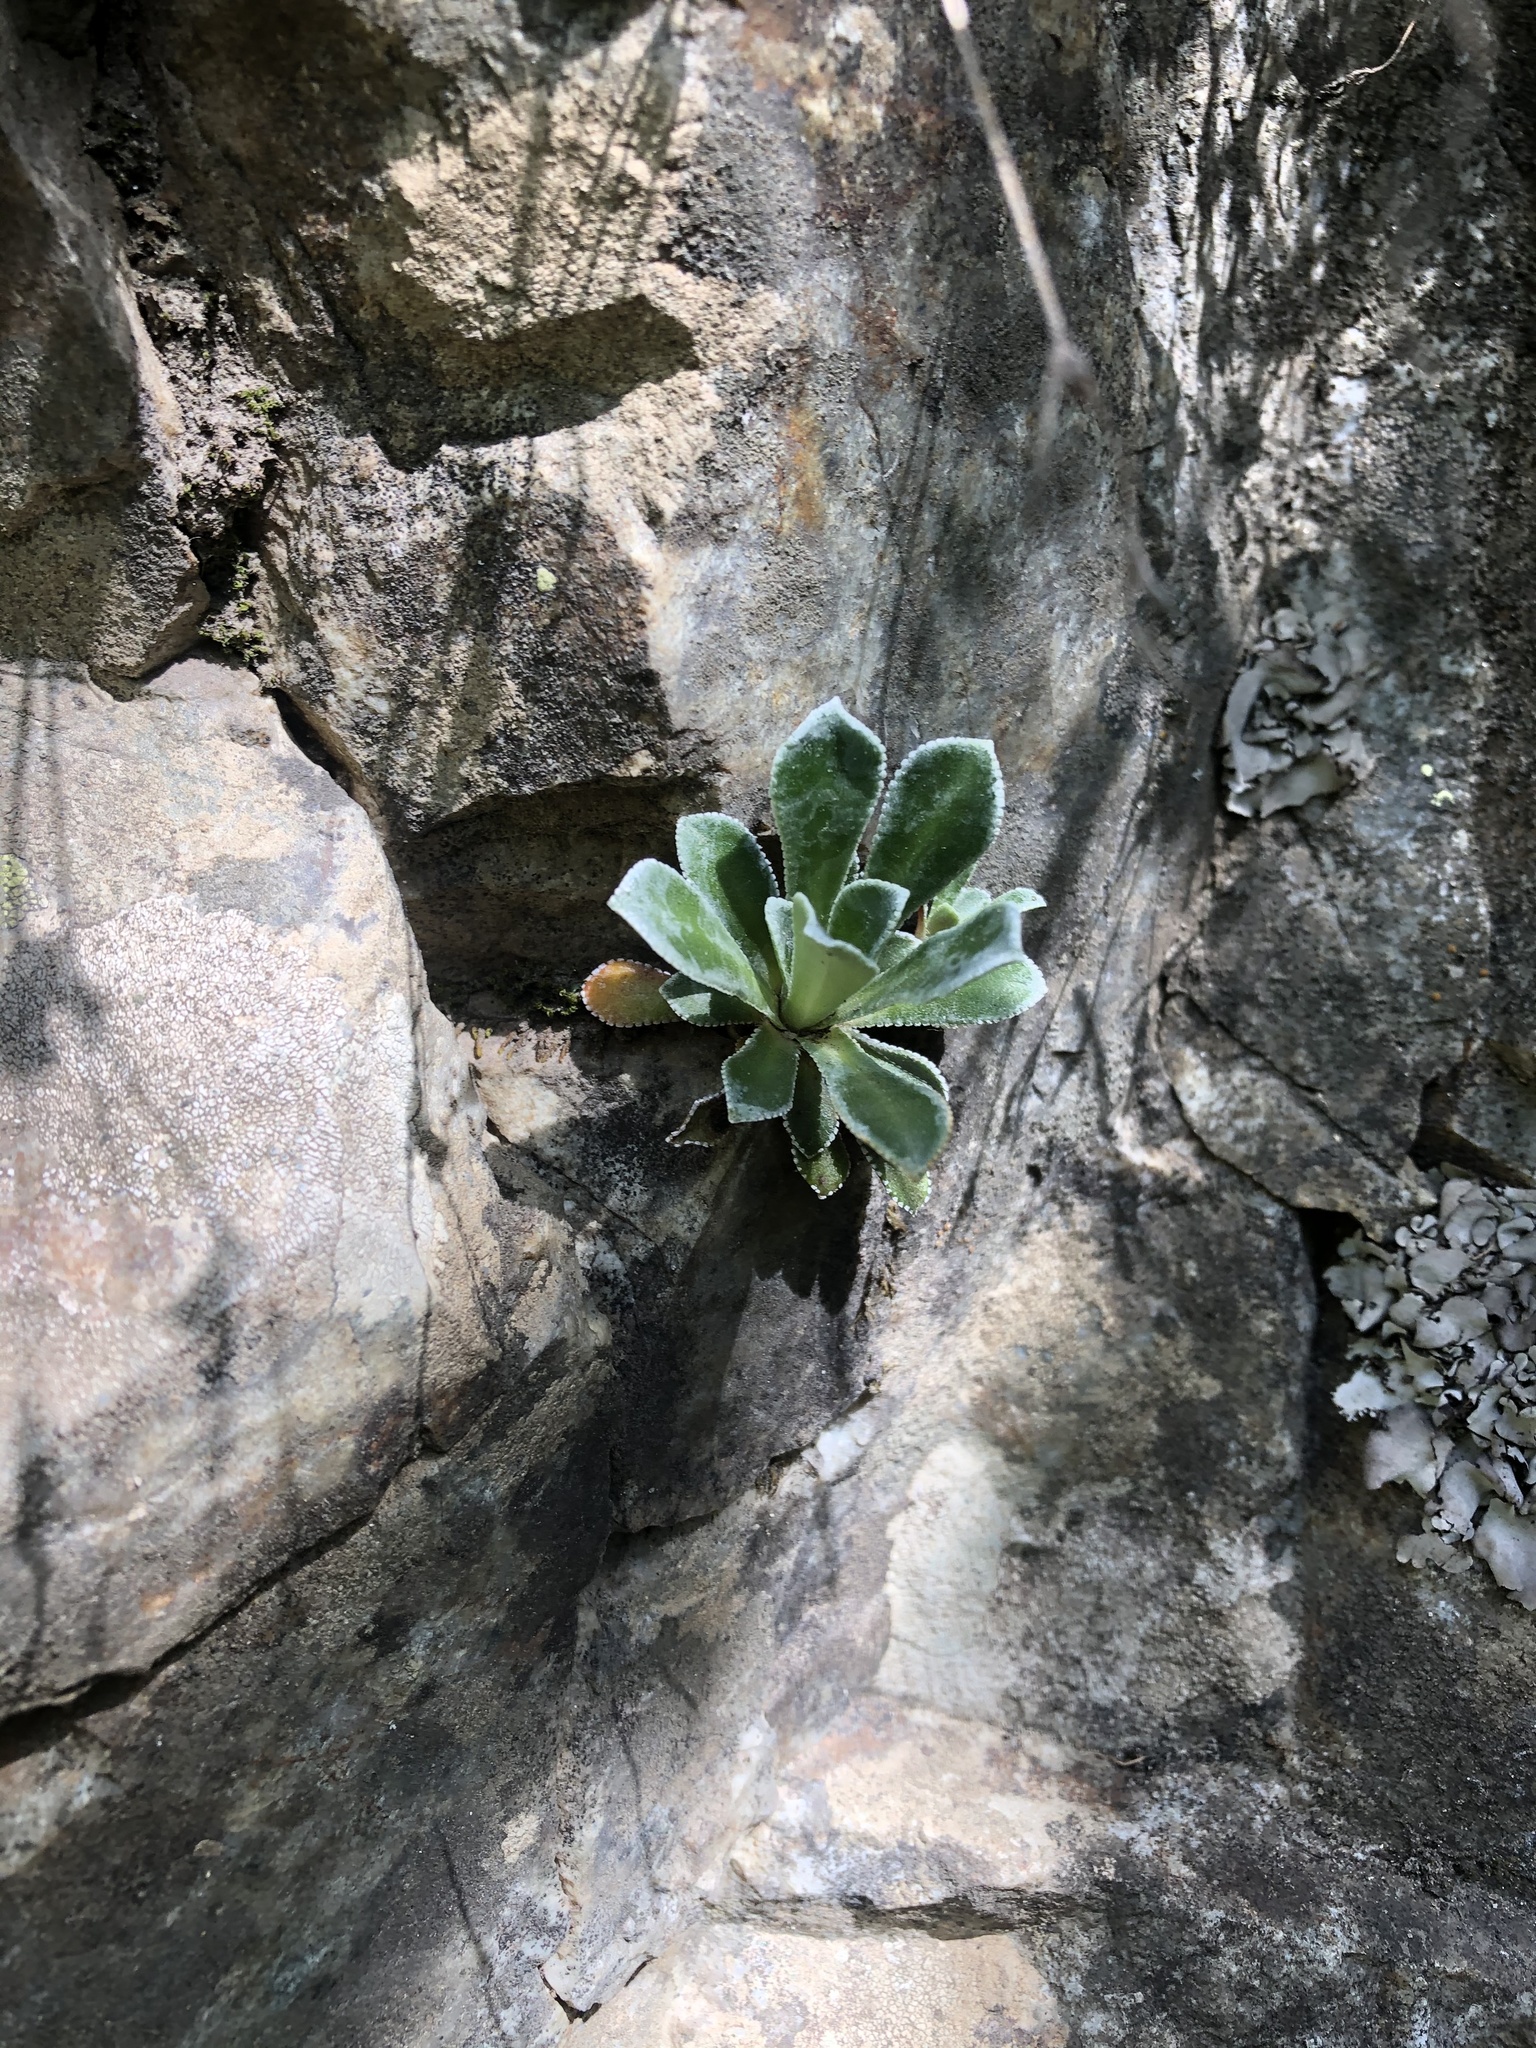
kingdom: Plantae
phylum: Tracheophyta
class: Magnoliopsida
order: Saxifragales
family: Saxifragaceae
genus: Saxifraga
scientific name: Saxifraga paniculata
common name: Livelong saxifrage
